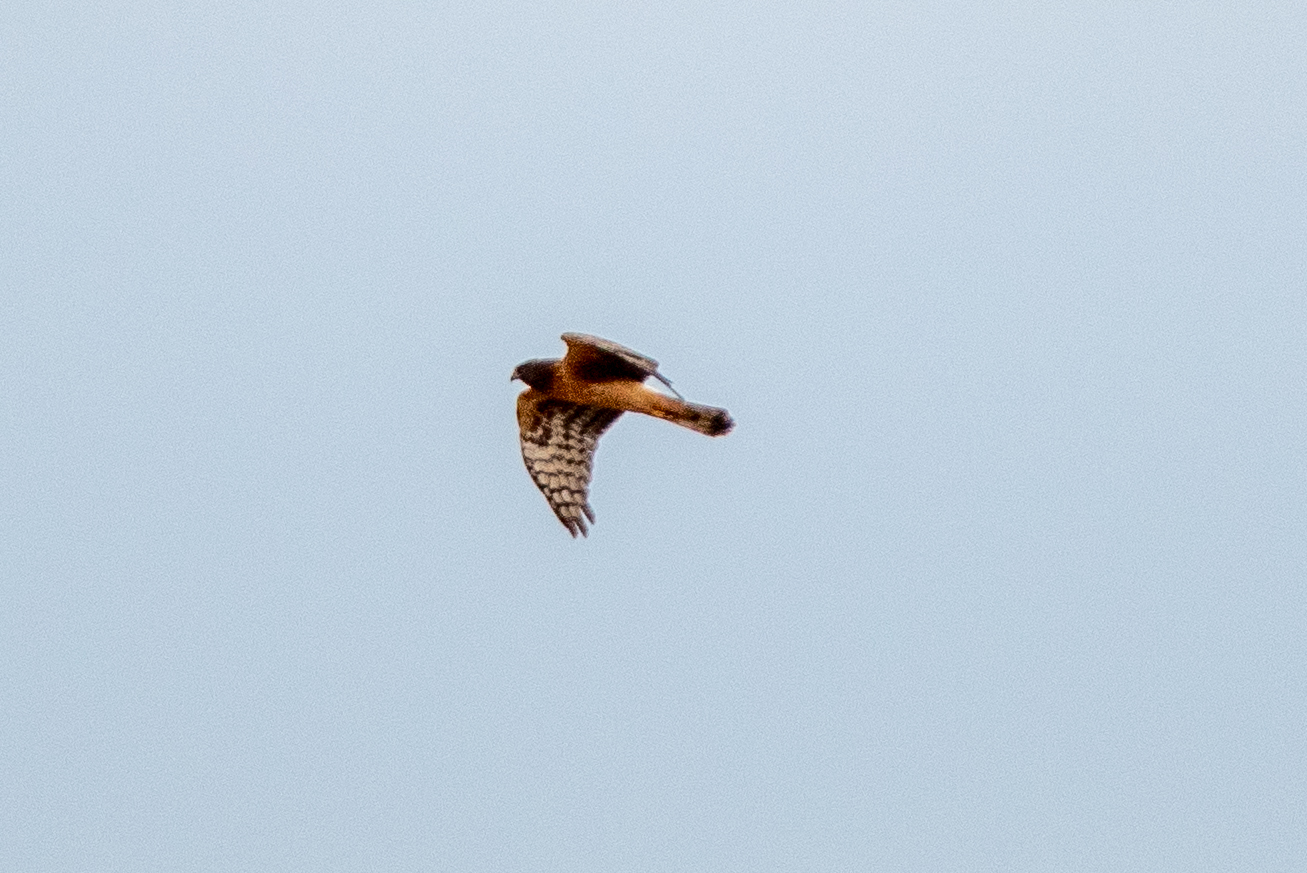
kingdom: Animalia
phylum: Chordata
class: Aves
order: Accipitriformes
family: Accipitridae
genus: Circus
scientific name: Circus cyaneus
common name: Hen harrier
